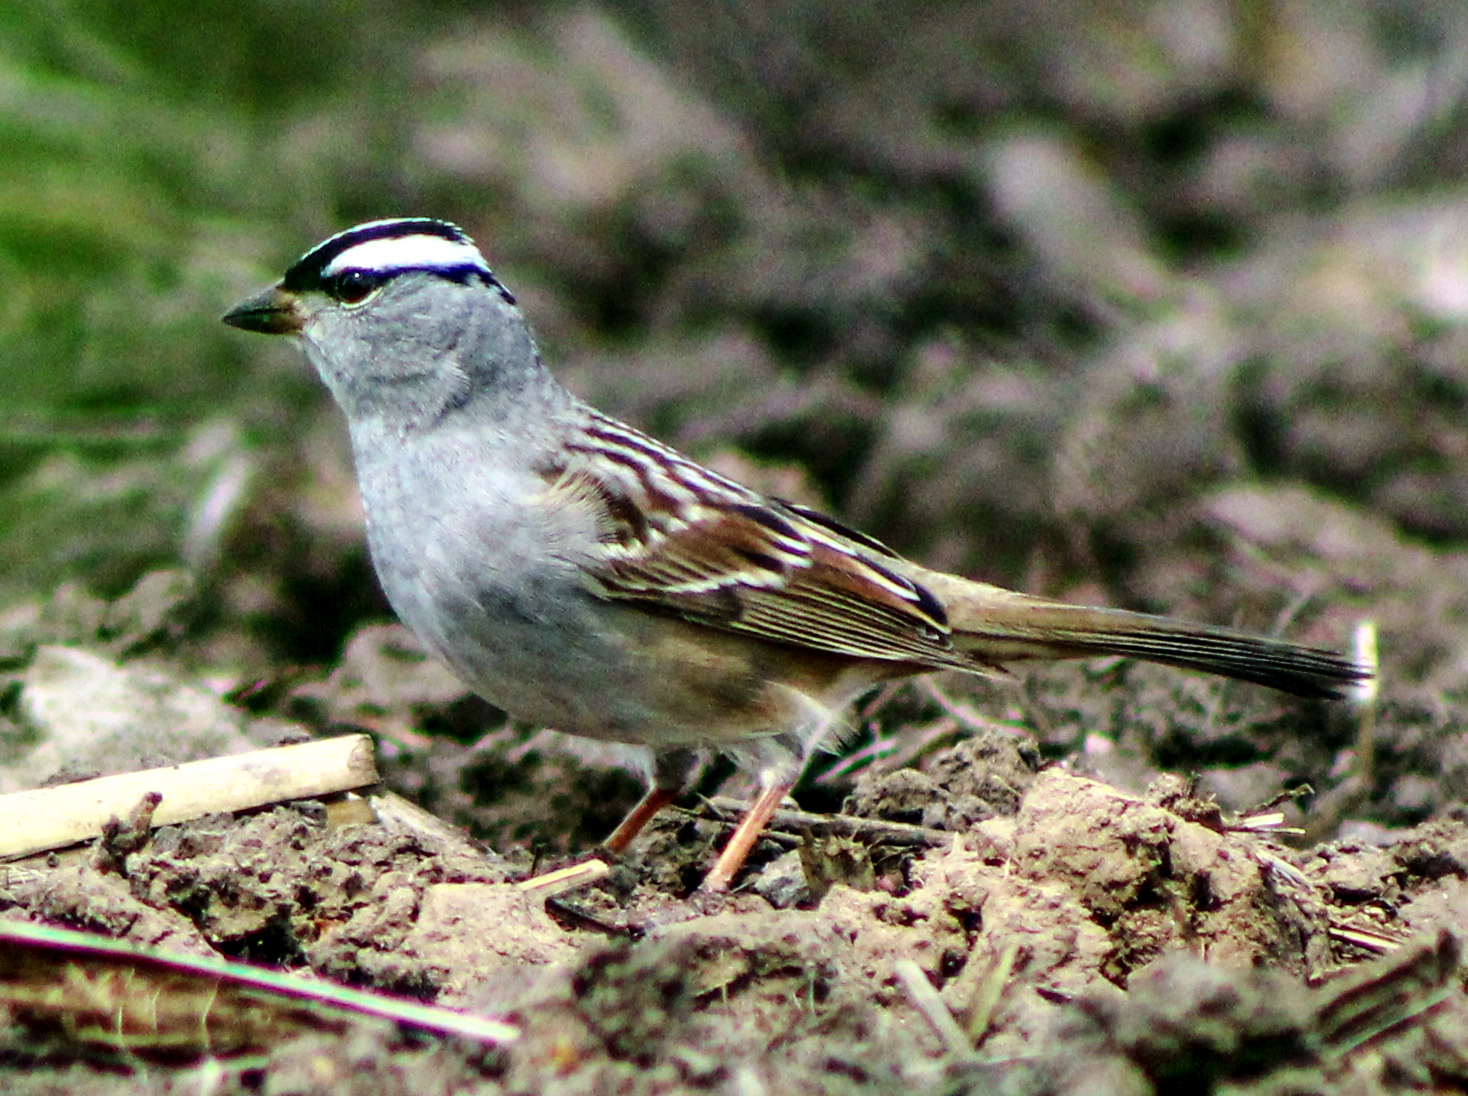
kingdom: Animalia
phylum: Chordata
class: Aves
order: Passeriformes
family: Passerellidae
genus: Zonotrichia
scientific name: Zonotrichia leucophrys
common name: White-crowned sparrow
